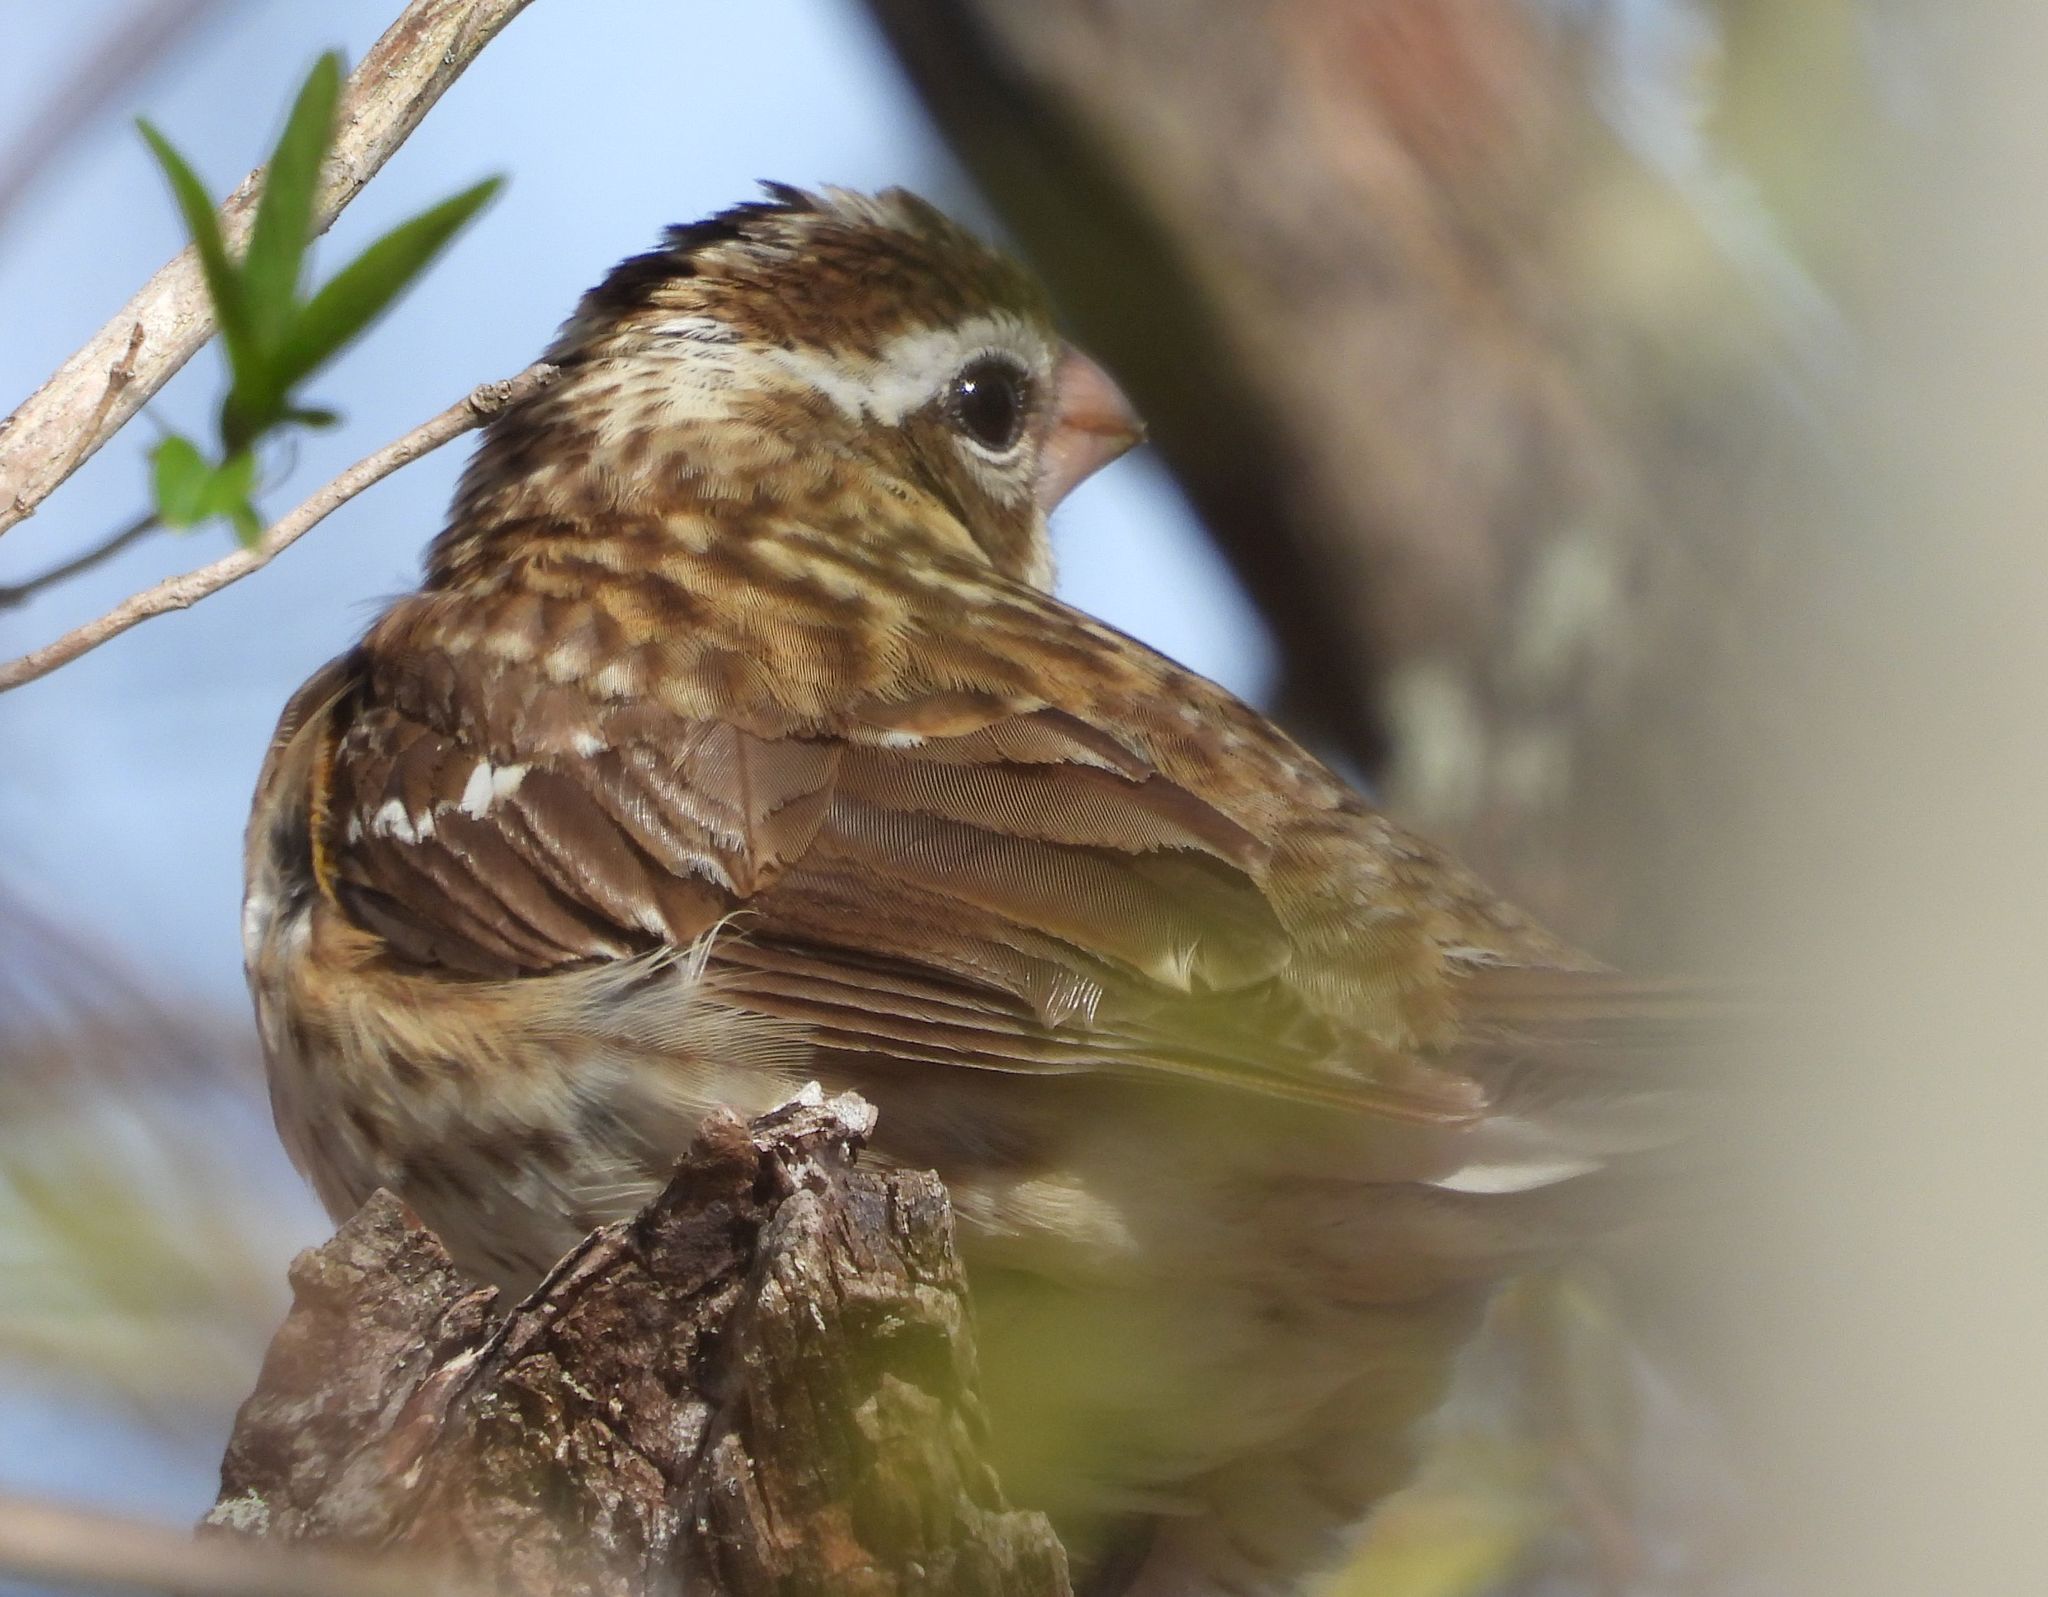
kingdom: Animalia
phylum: Chordata
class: Aves
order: Passeriformes
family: Cardinalidae
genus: Pheucticus
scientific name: Pheucticus ludovicianus
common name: Rose-breasted grosbeak
